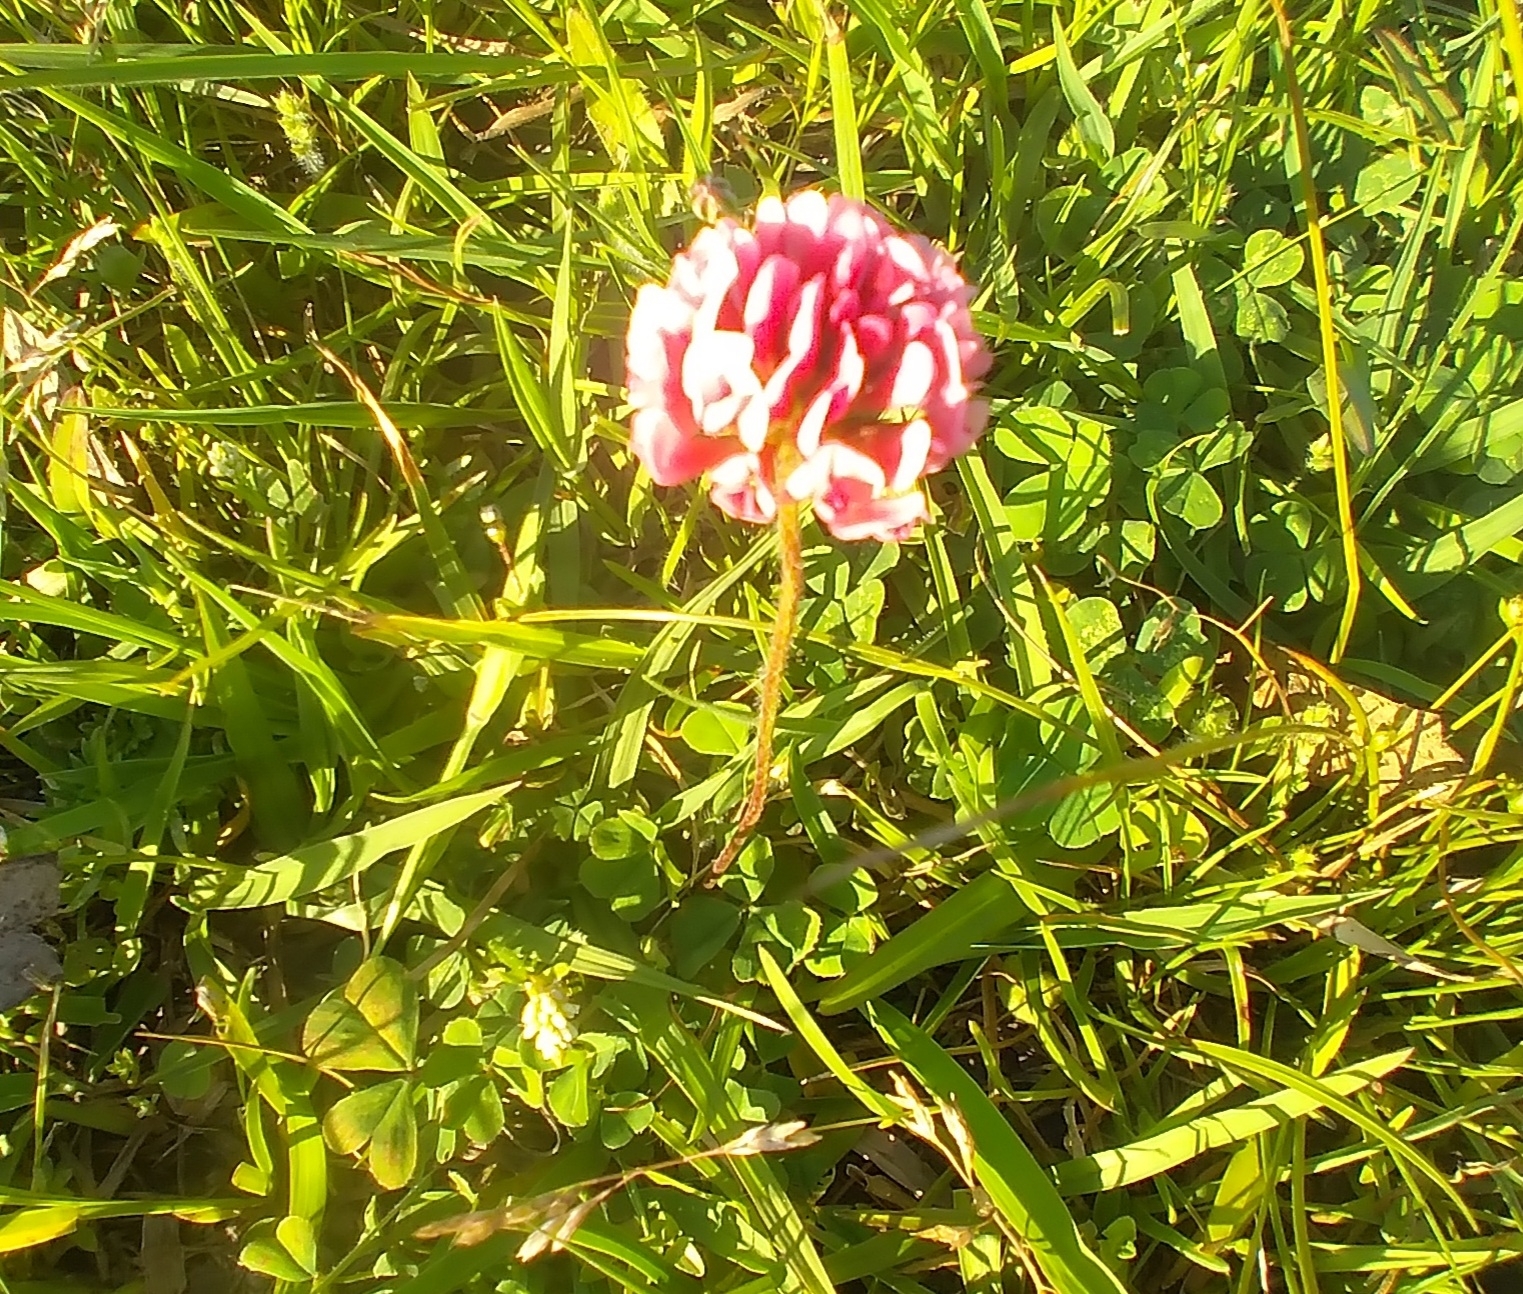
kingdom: Plantae
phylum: Tracheophyta
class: Magnoliopsida
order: Fabales
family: Fabaceae
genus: Trifolium
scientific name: Trifolium polymorphum
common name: Peanut clover
